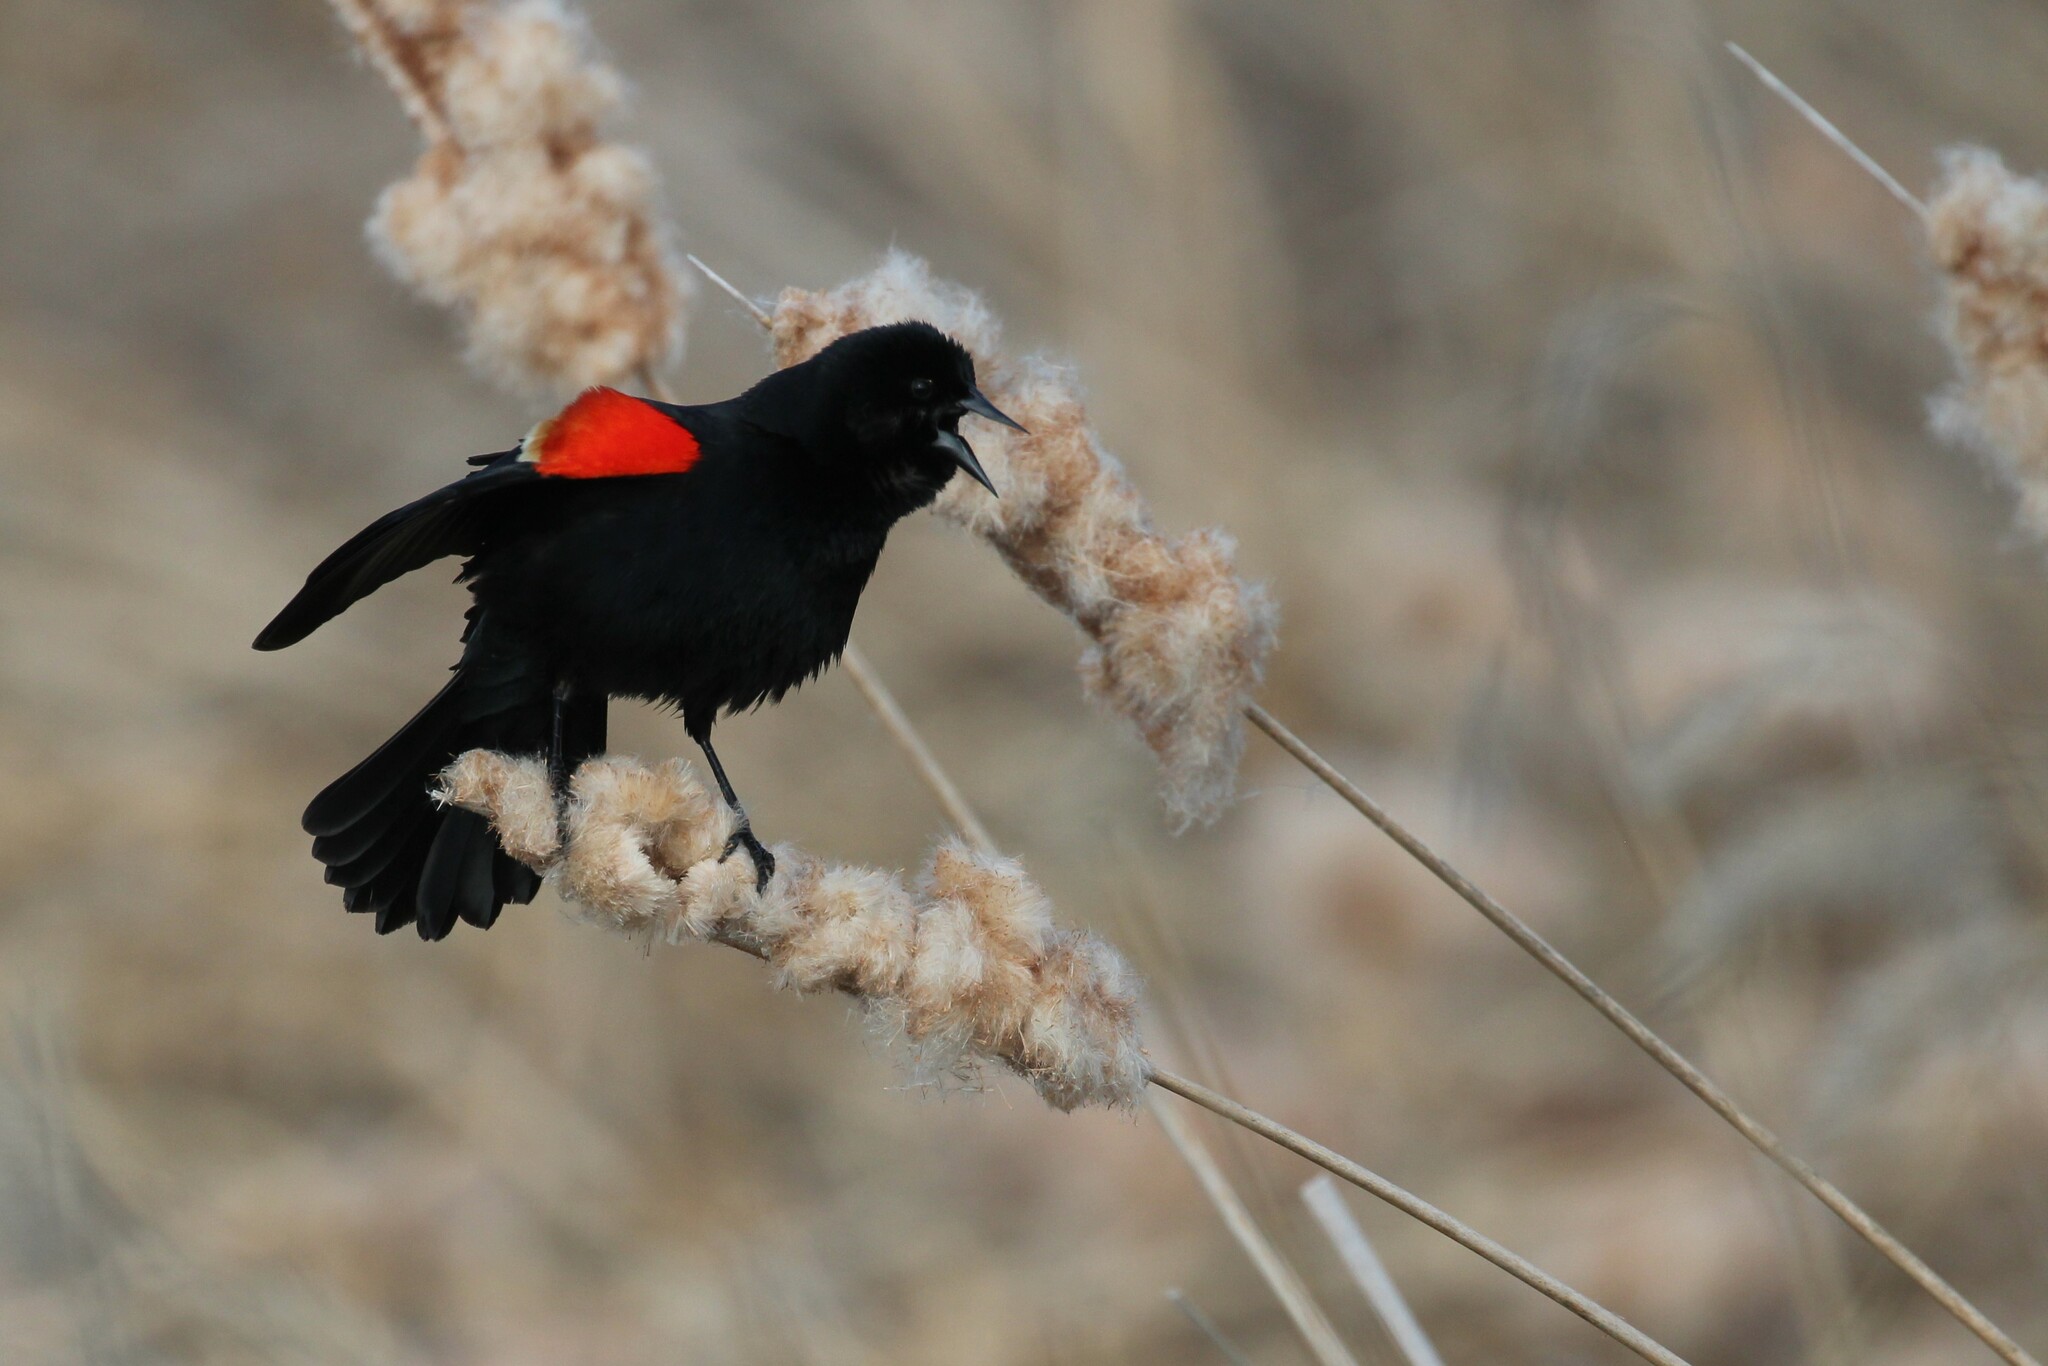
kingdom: Animalia
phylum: Chordata
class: Aves
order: Passeriformes
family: Icteridae
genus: Agelaius
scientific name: Agelaius phoeniceus
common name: Red-winged blackbird
